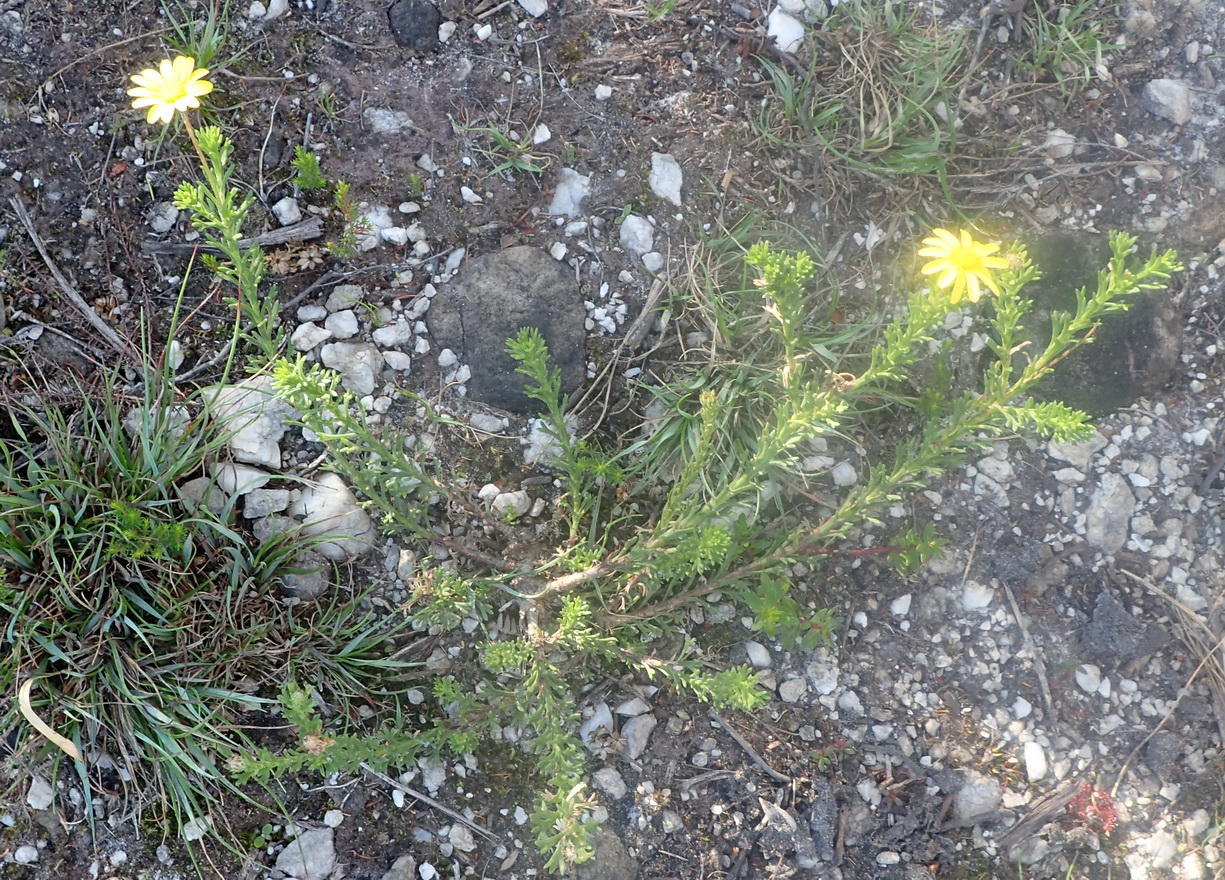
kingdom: Plantae
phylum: Tracheophyta
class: Magnoliopsida
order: Asterales
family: Asteraceae
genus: Ursinia
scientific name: Ursinia trifida
